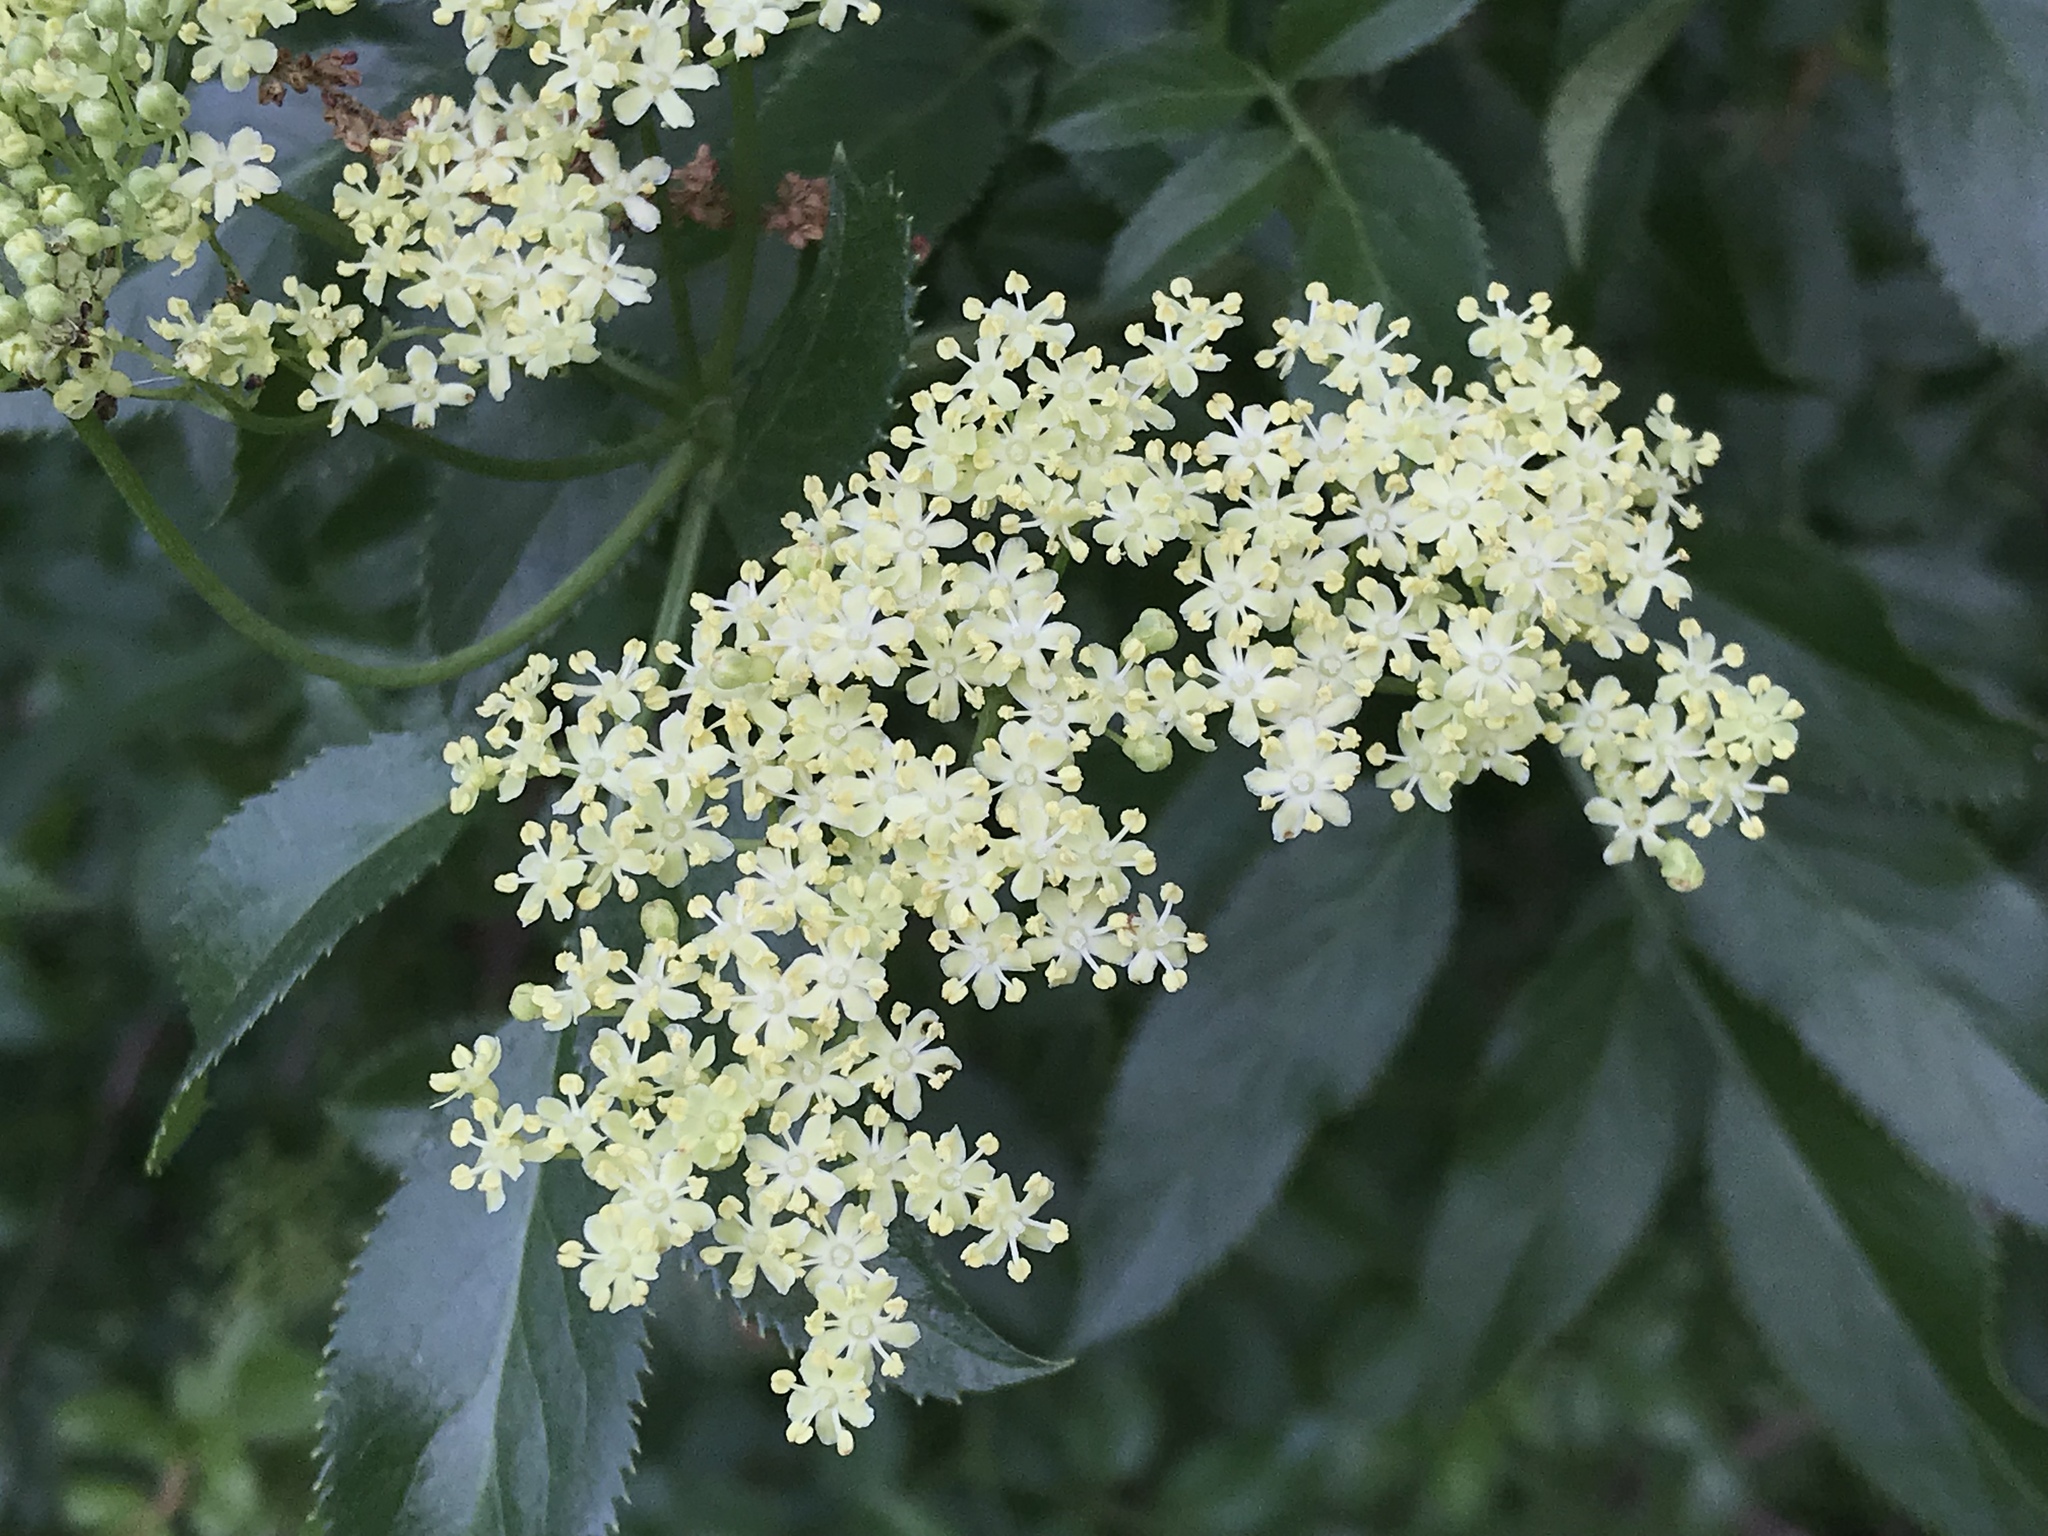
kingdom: Plantae
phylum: Tracheophyta
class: Magnoliopsida
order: Dipsacales
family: Viburnaceae
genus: Sambucus
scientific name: Sambucus cerulea
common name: Blue elder
